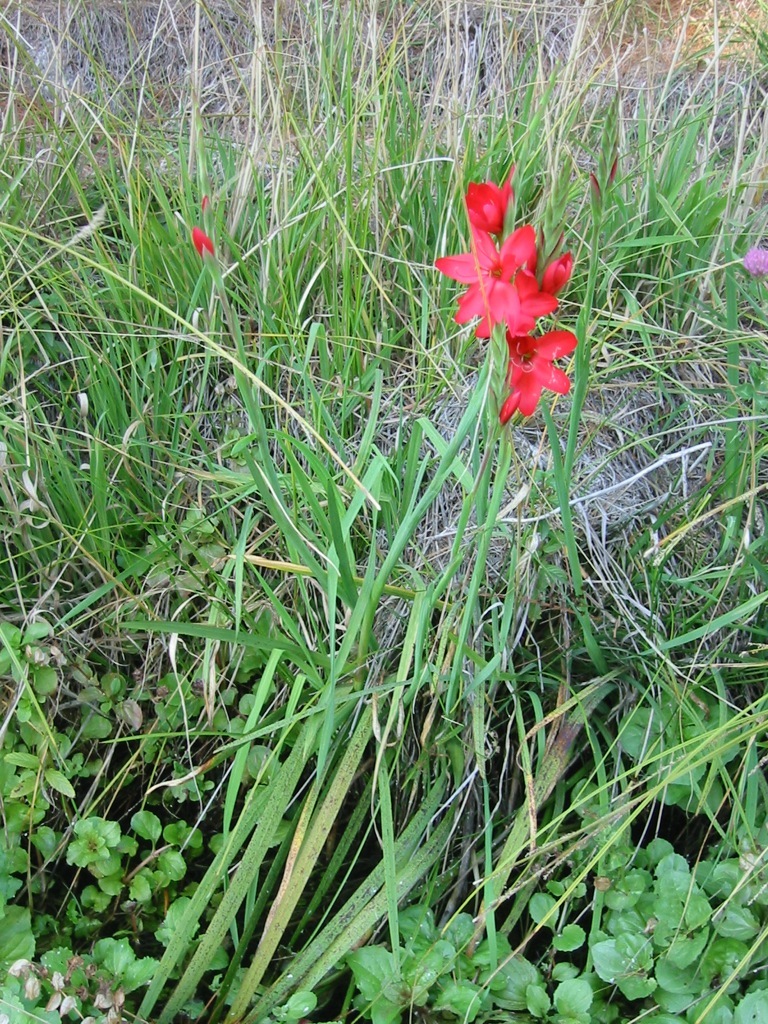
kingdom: Plantae
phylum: Tracheophyta
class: Liliopsida
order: Asparagales
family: Iridaceae
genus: Hesperantha
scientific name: Hesperantha coccinea
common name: River-lily
